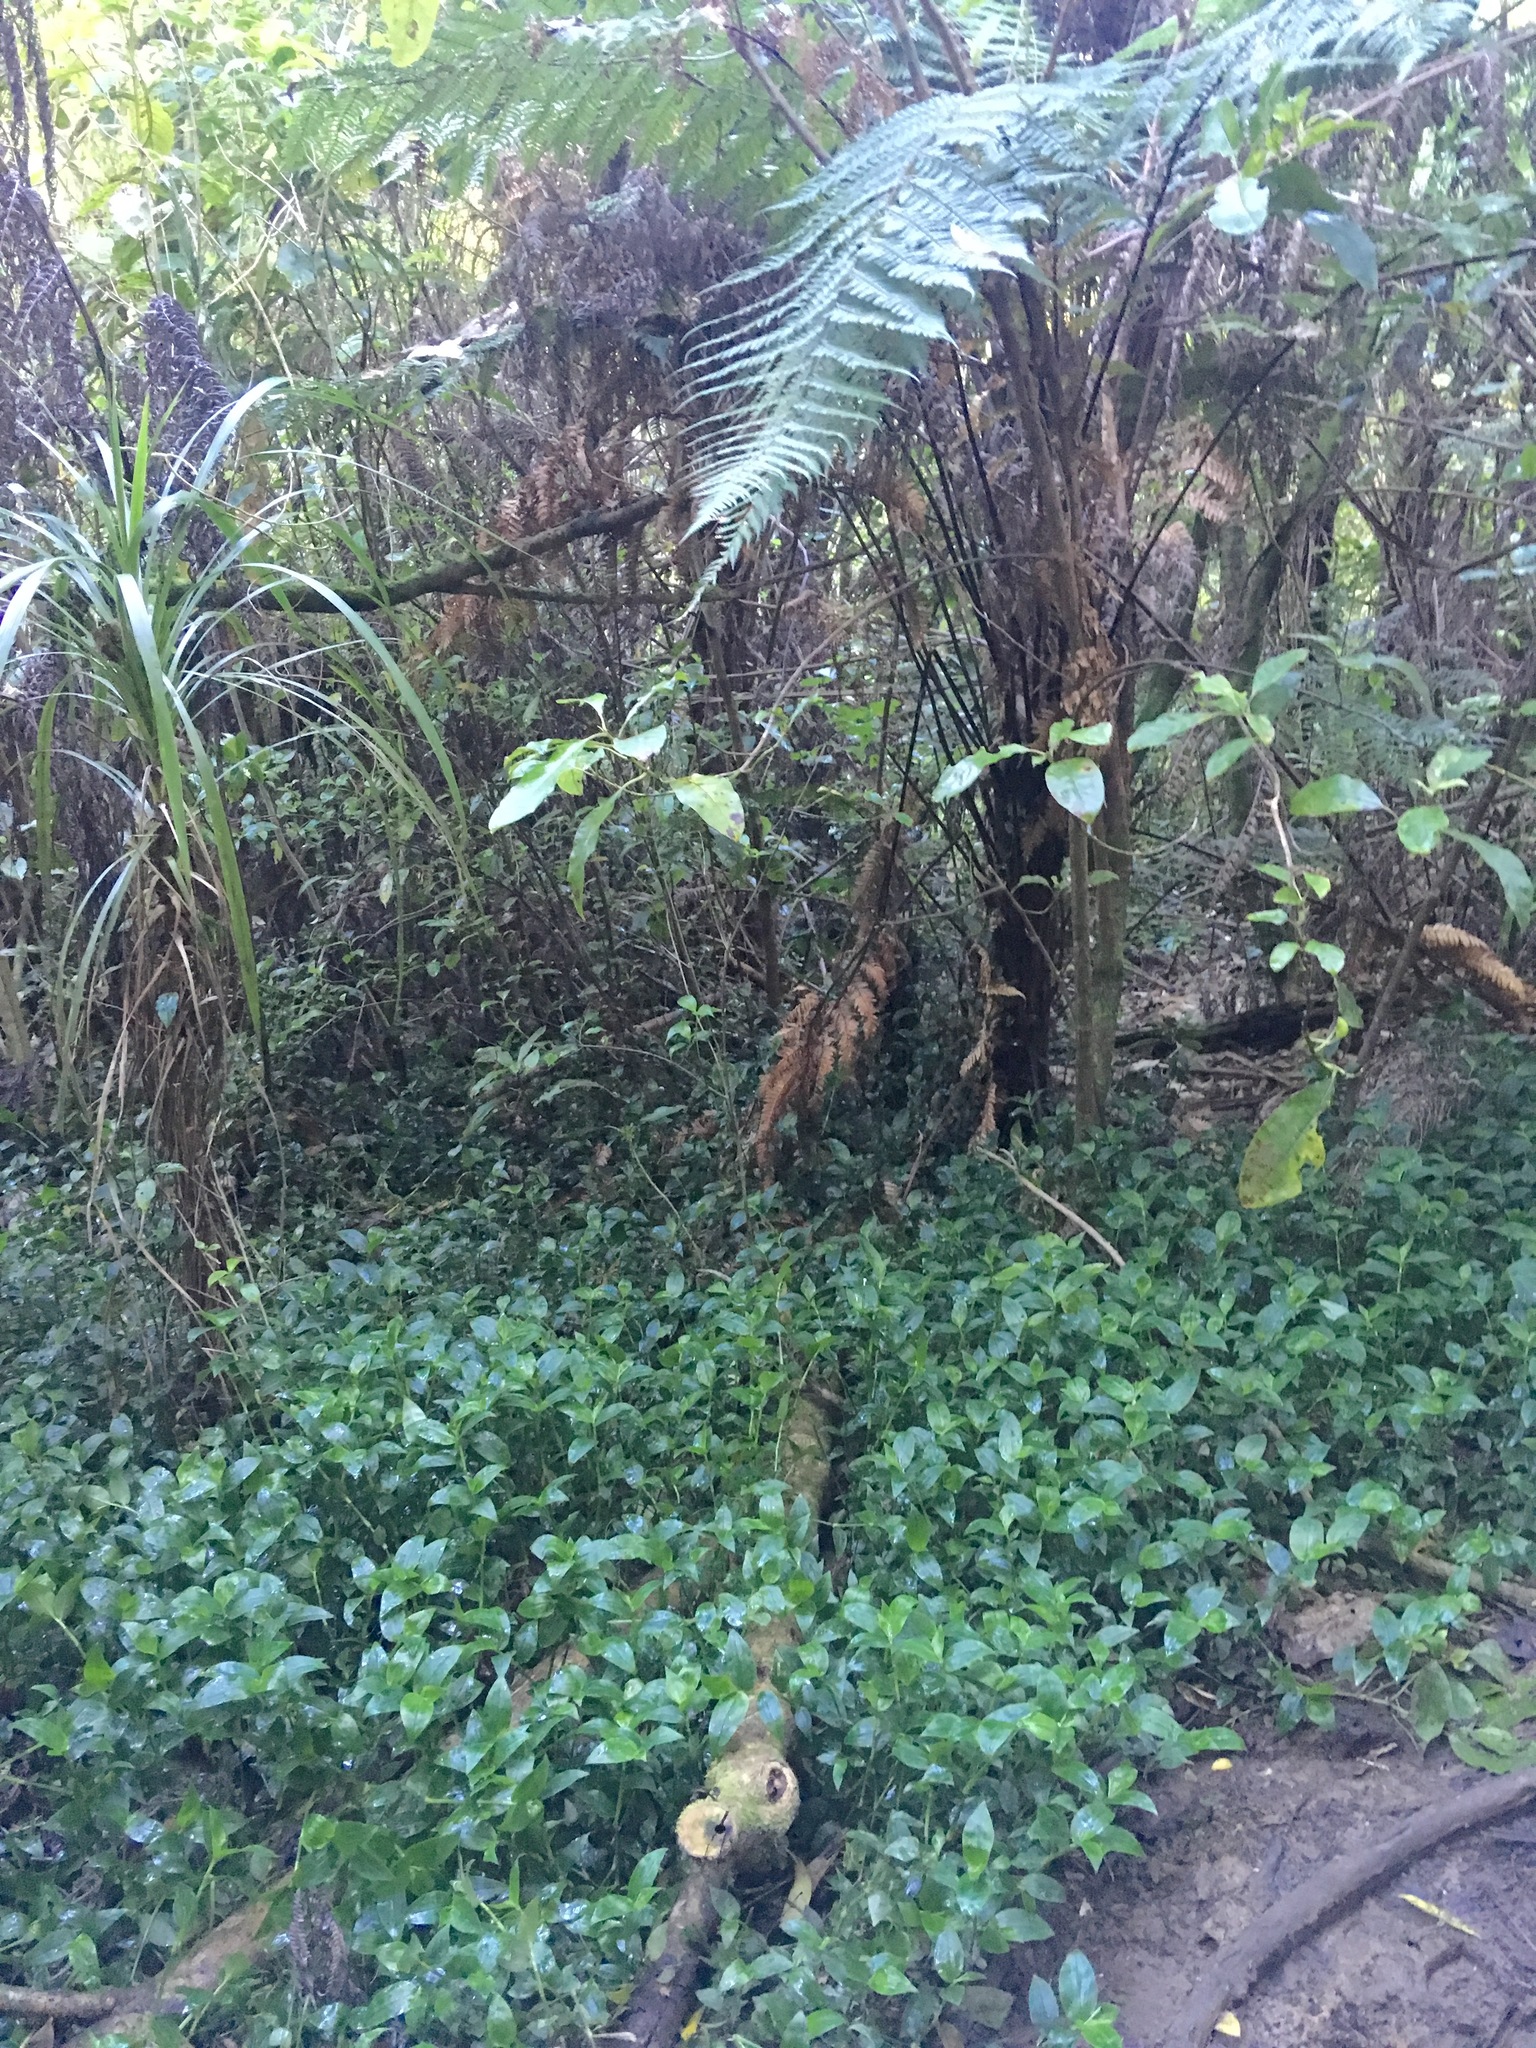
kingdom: Plantae
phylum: Tracheophyta
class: Liliopsida
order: Commelinales
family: Commelinaceae
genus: Tradescantia
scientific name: Tradescantia fluminensis
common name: Wandering-jew
